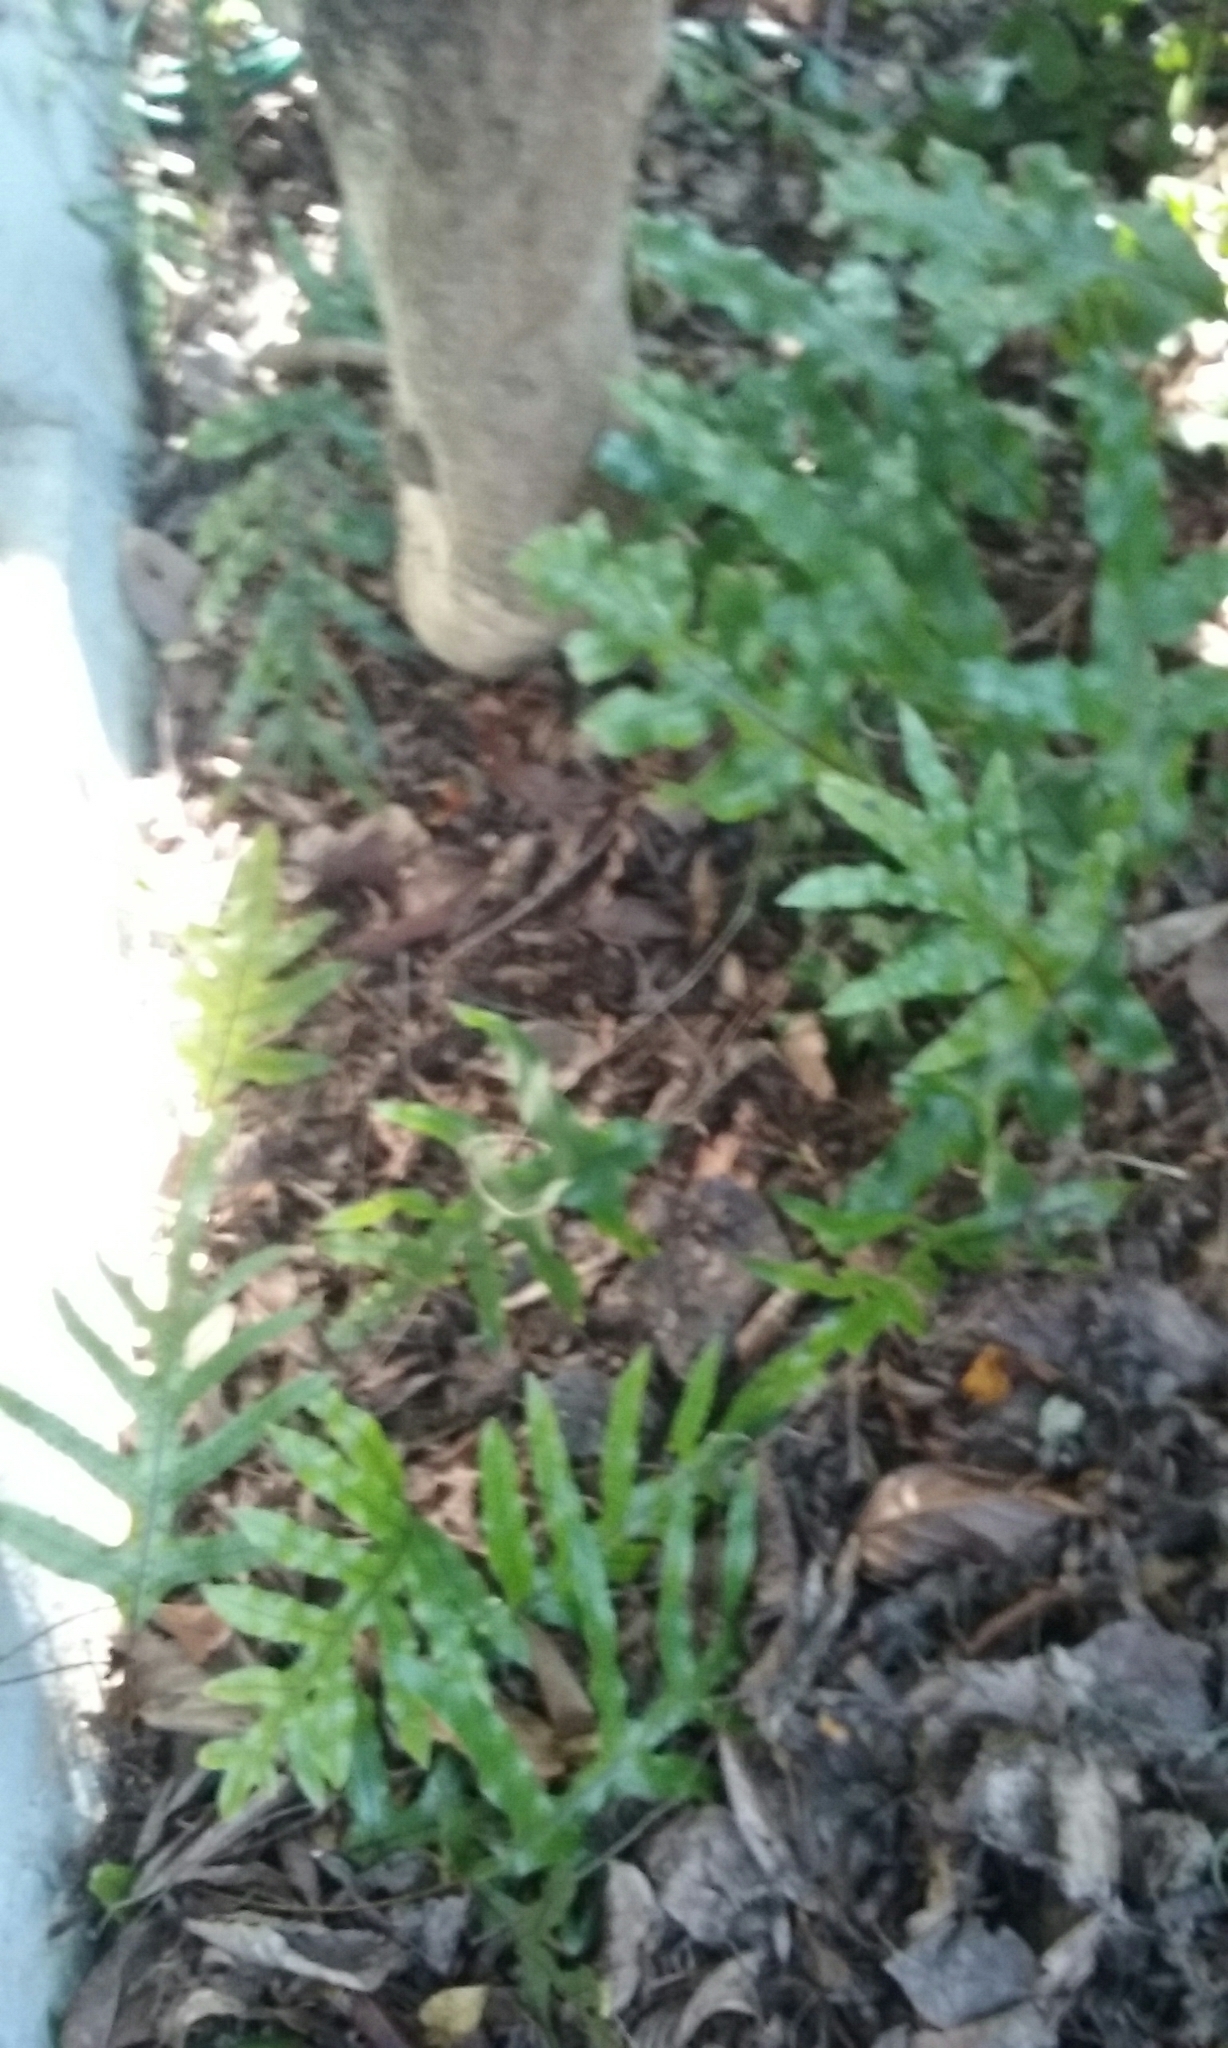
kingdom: Plantae
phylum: Tracheophyta
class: Polypodiopsida
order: Polypodiales
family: Polypodiaceae
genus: Lecanopteris
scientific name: Lecanopteris pustulata
